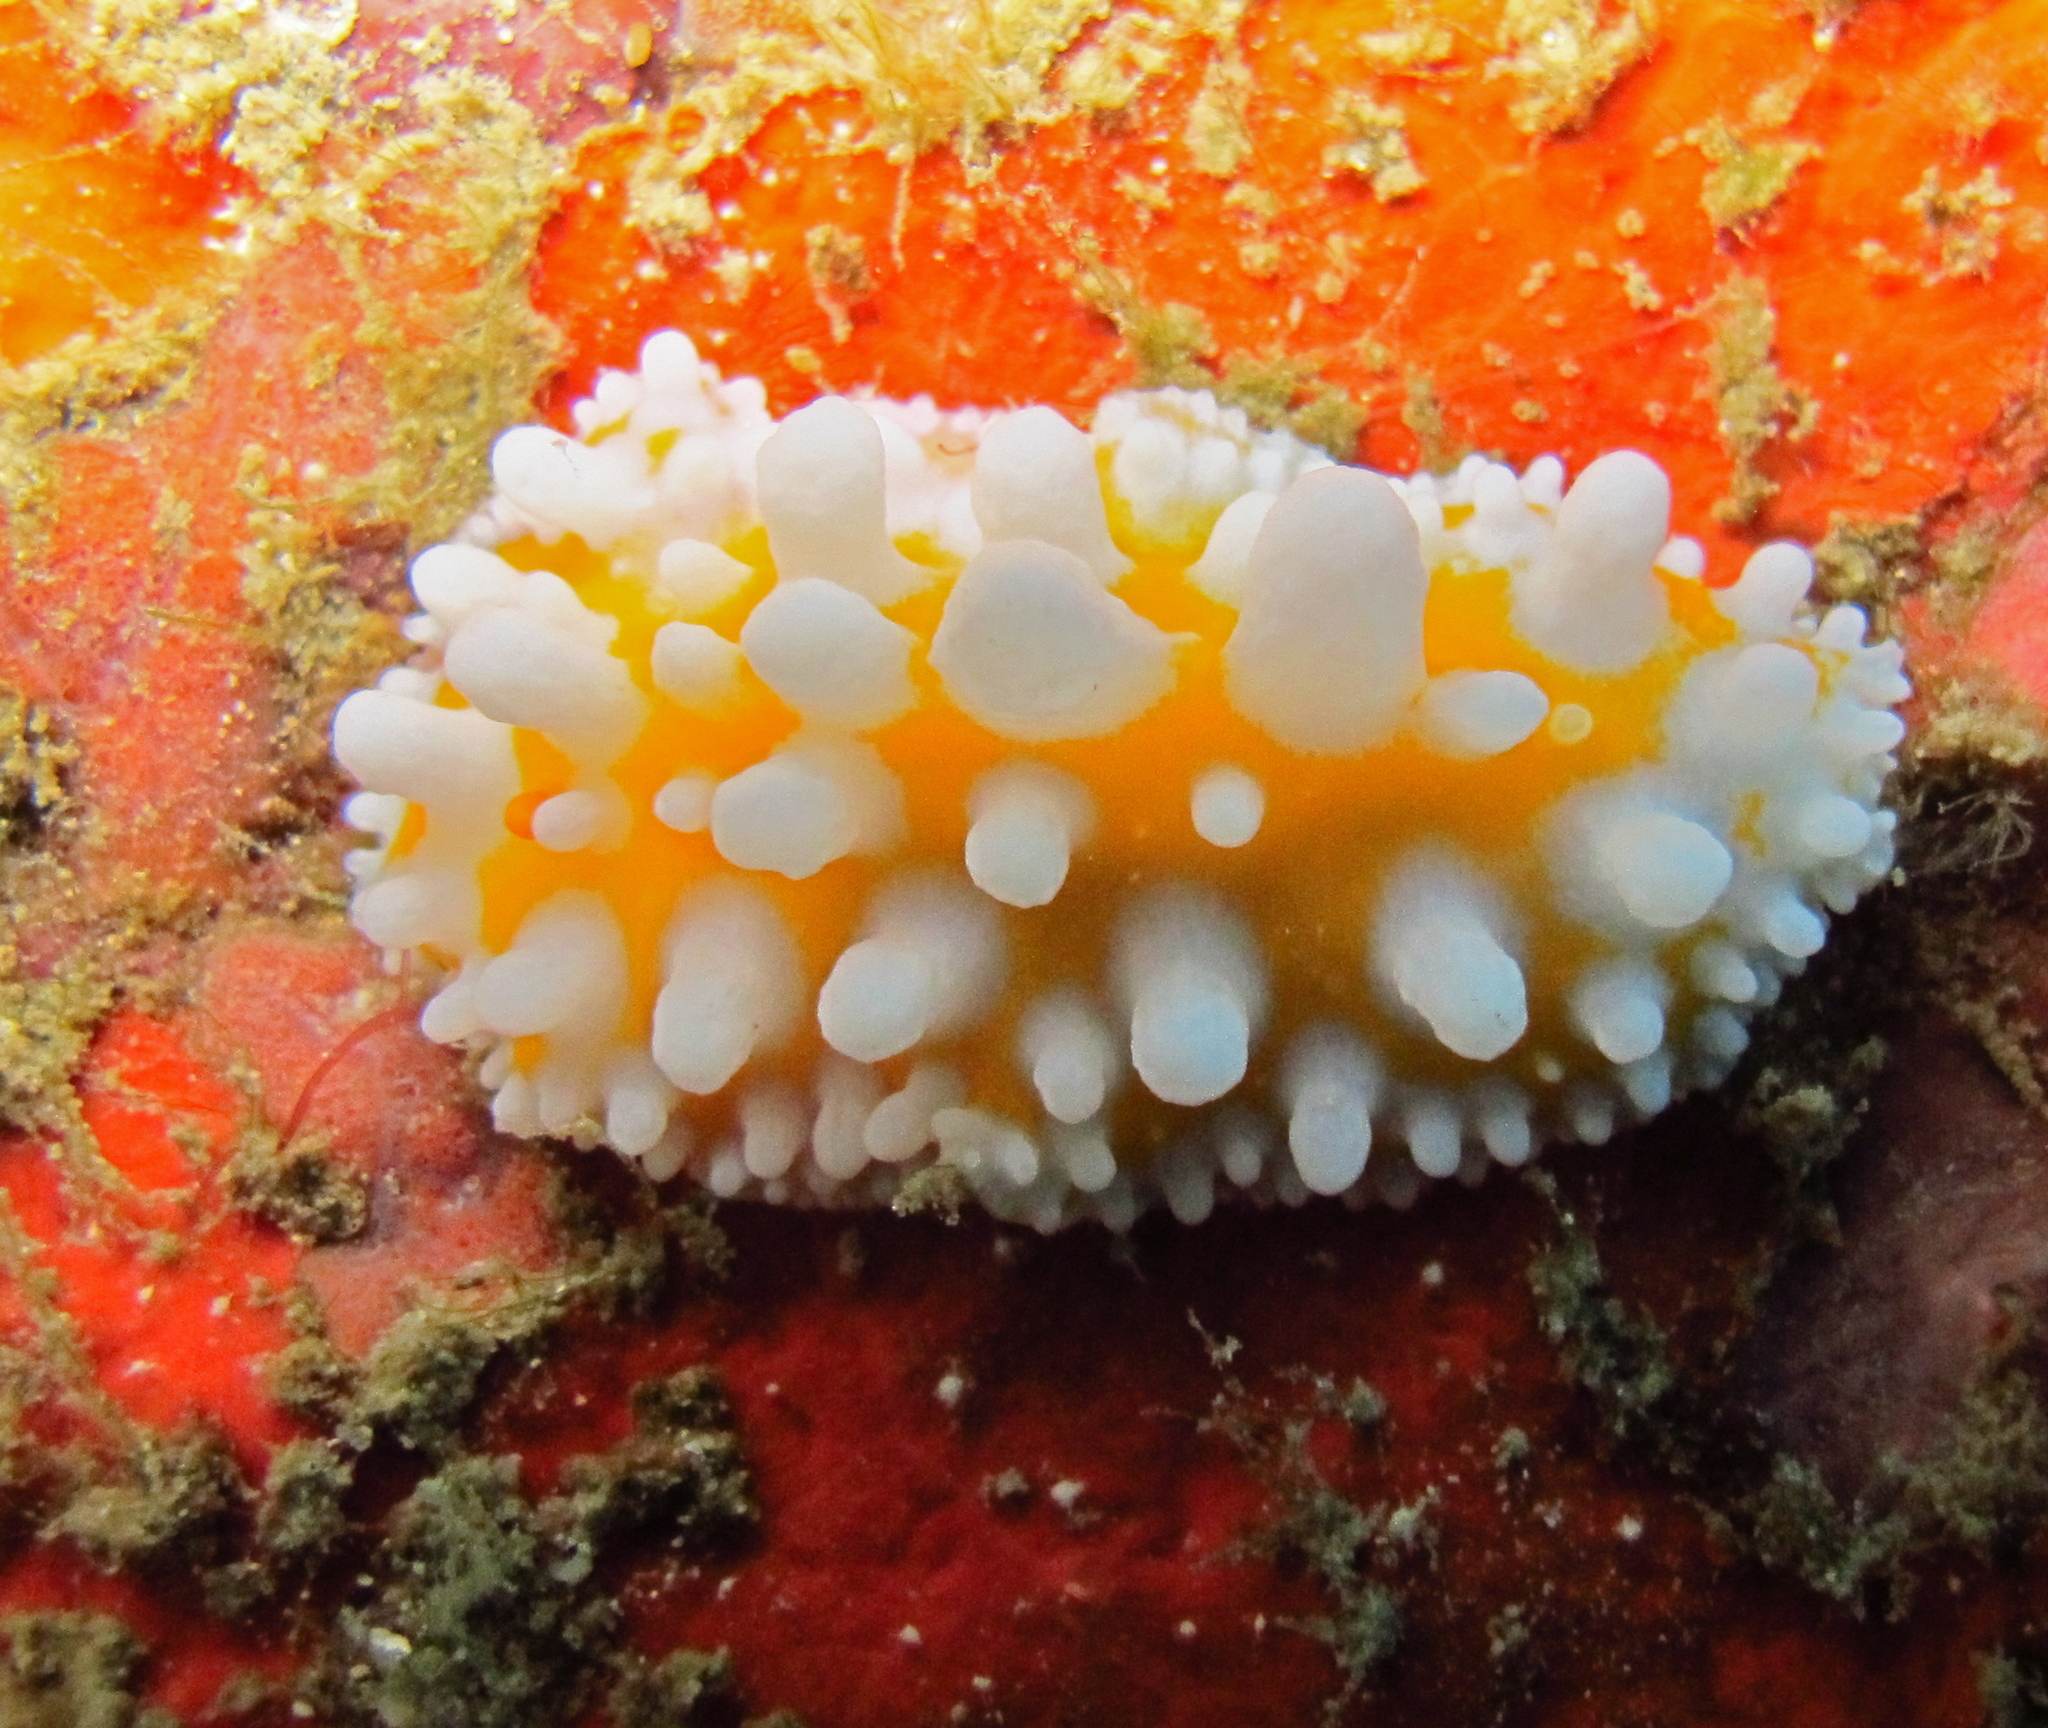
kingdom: Animalia
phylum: Mollusca
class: Gastropoda
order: Nudibranchia
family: Phyllidiidae
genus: Phyllidia
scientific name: Phyllidia ocellata
